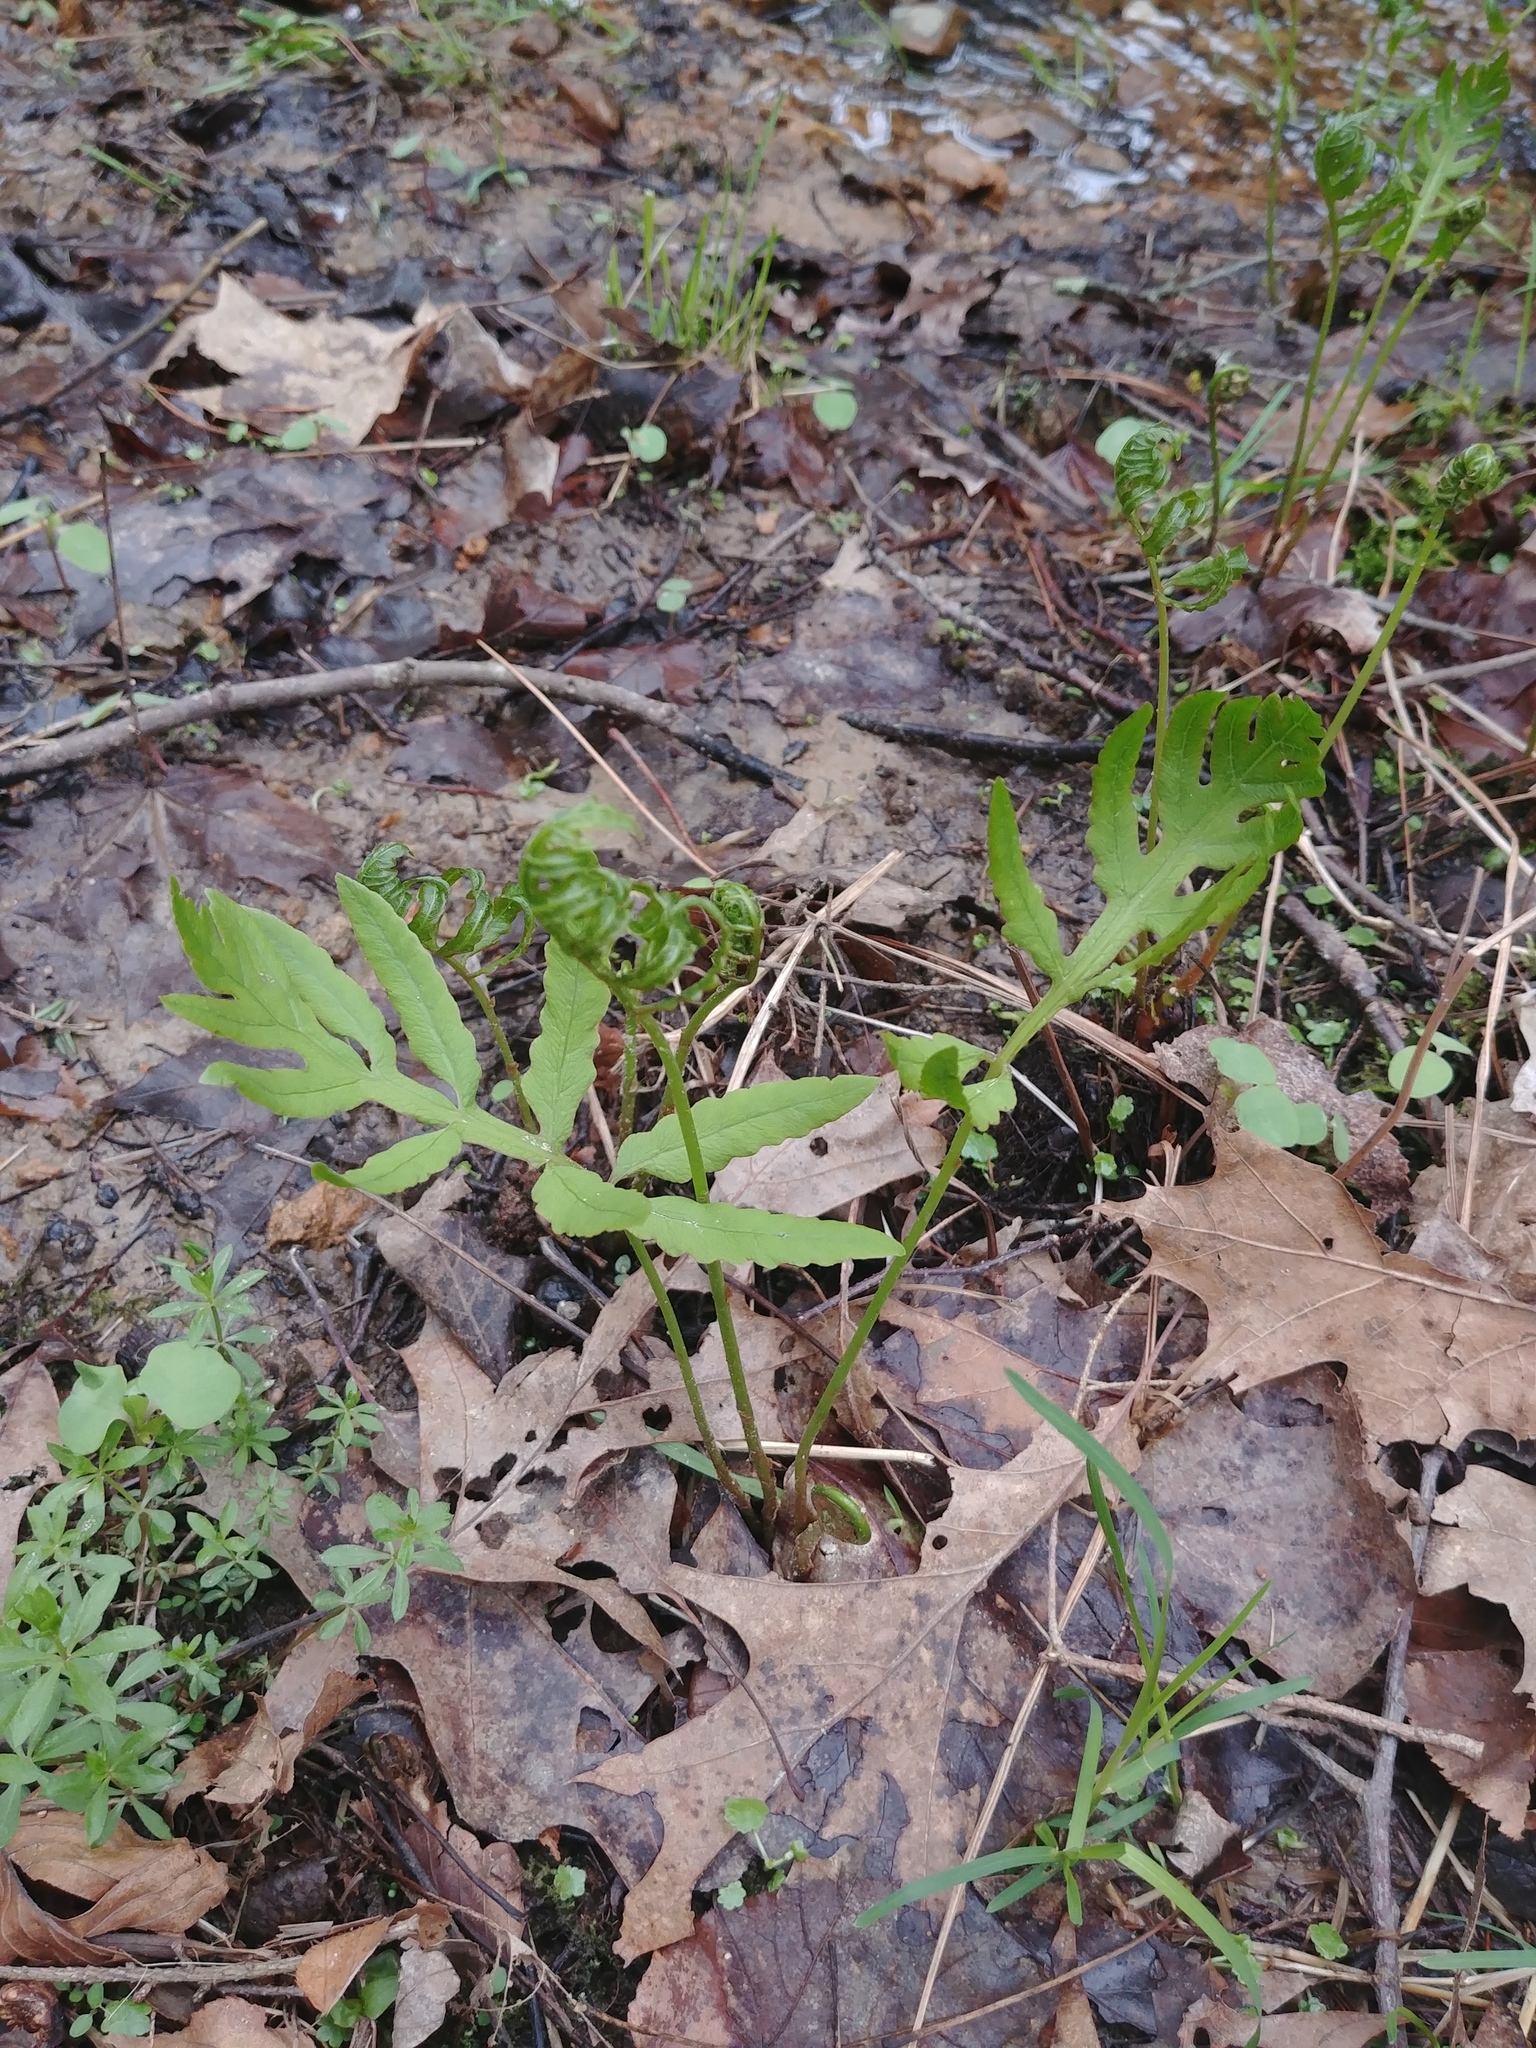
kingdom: Plantae
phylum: Tracheophyta
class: Polypodiopsida
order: Polypodiales
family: Onocleaceae
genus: Onoclea
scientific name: Onoclea sensibilis
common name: Sensitive fern
